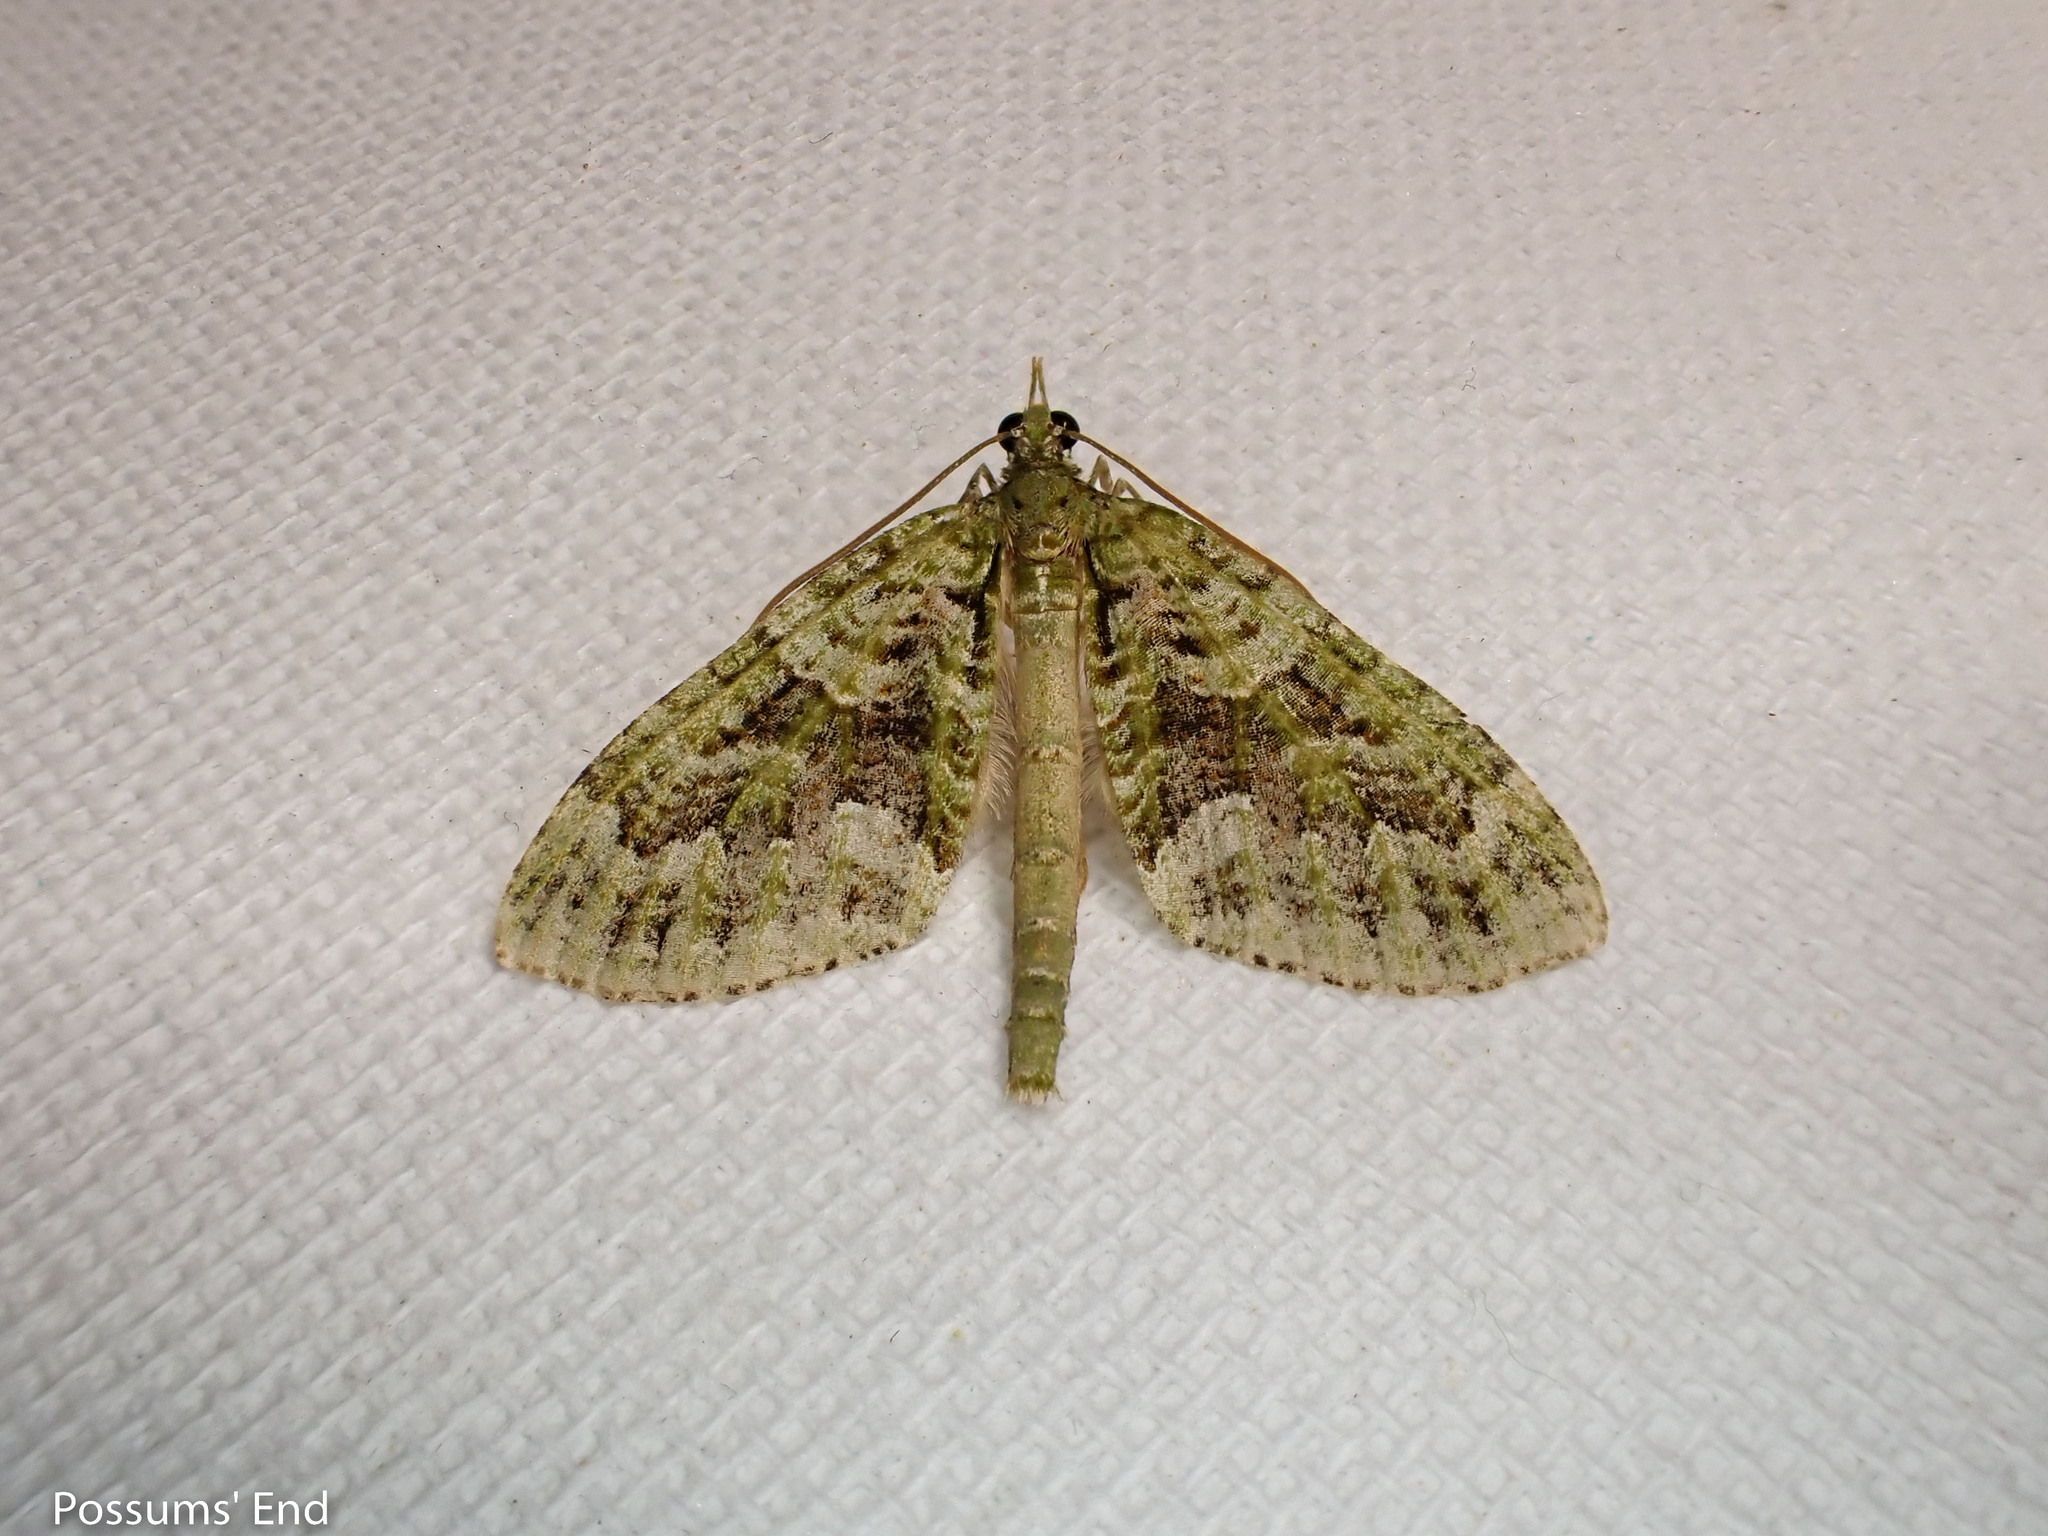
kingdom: Animalia
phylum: Arthropoda
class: Insecta
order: Lepidoptera
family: Geometridae
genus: Tatosoma
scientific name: Tatosoma agrionata
